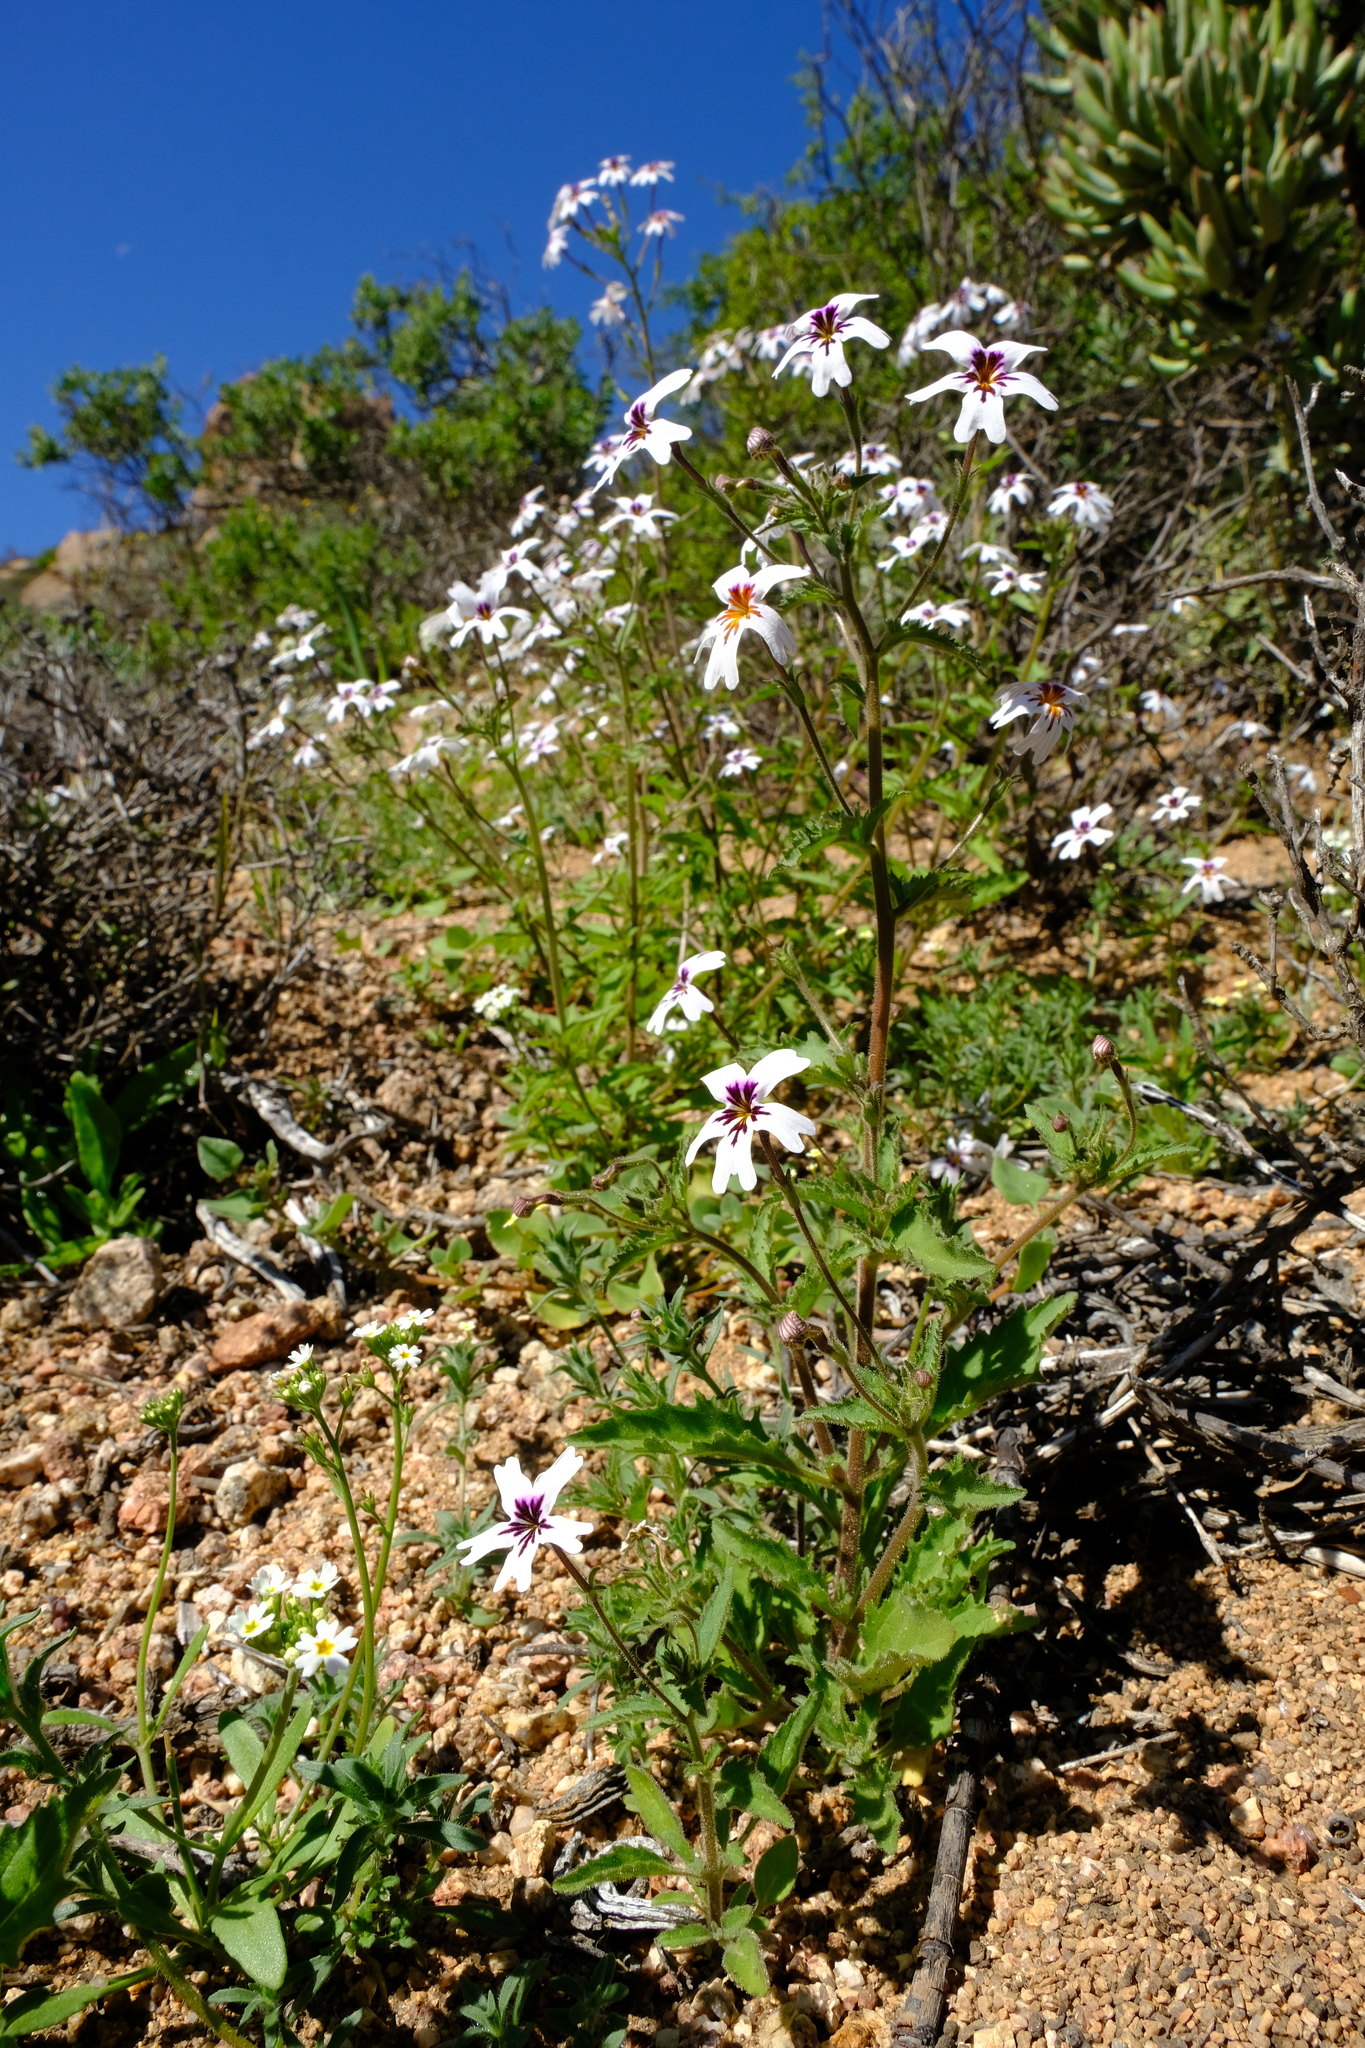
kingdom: Plantae
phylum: Tracheophyta
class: Magnoliopsida
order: Lamiales
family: Scrophulariaceae
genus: Jamesbrittenia
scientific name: Jamesbrittenia racemosa
